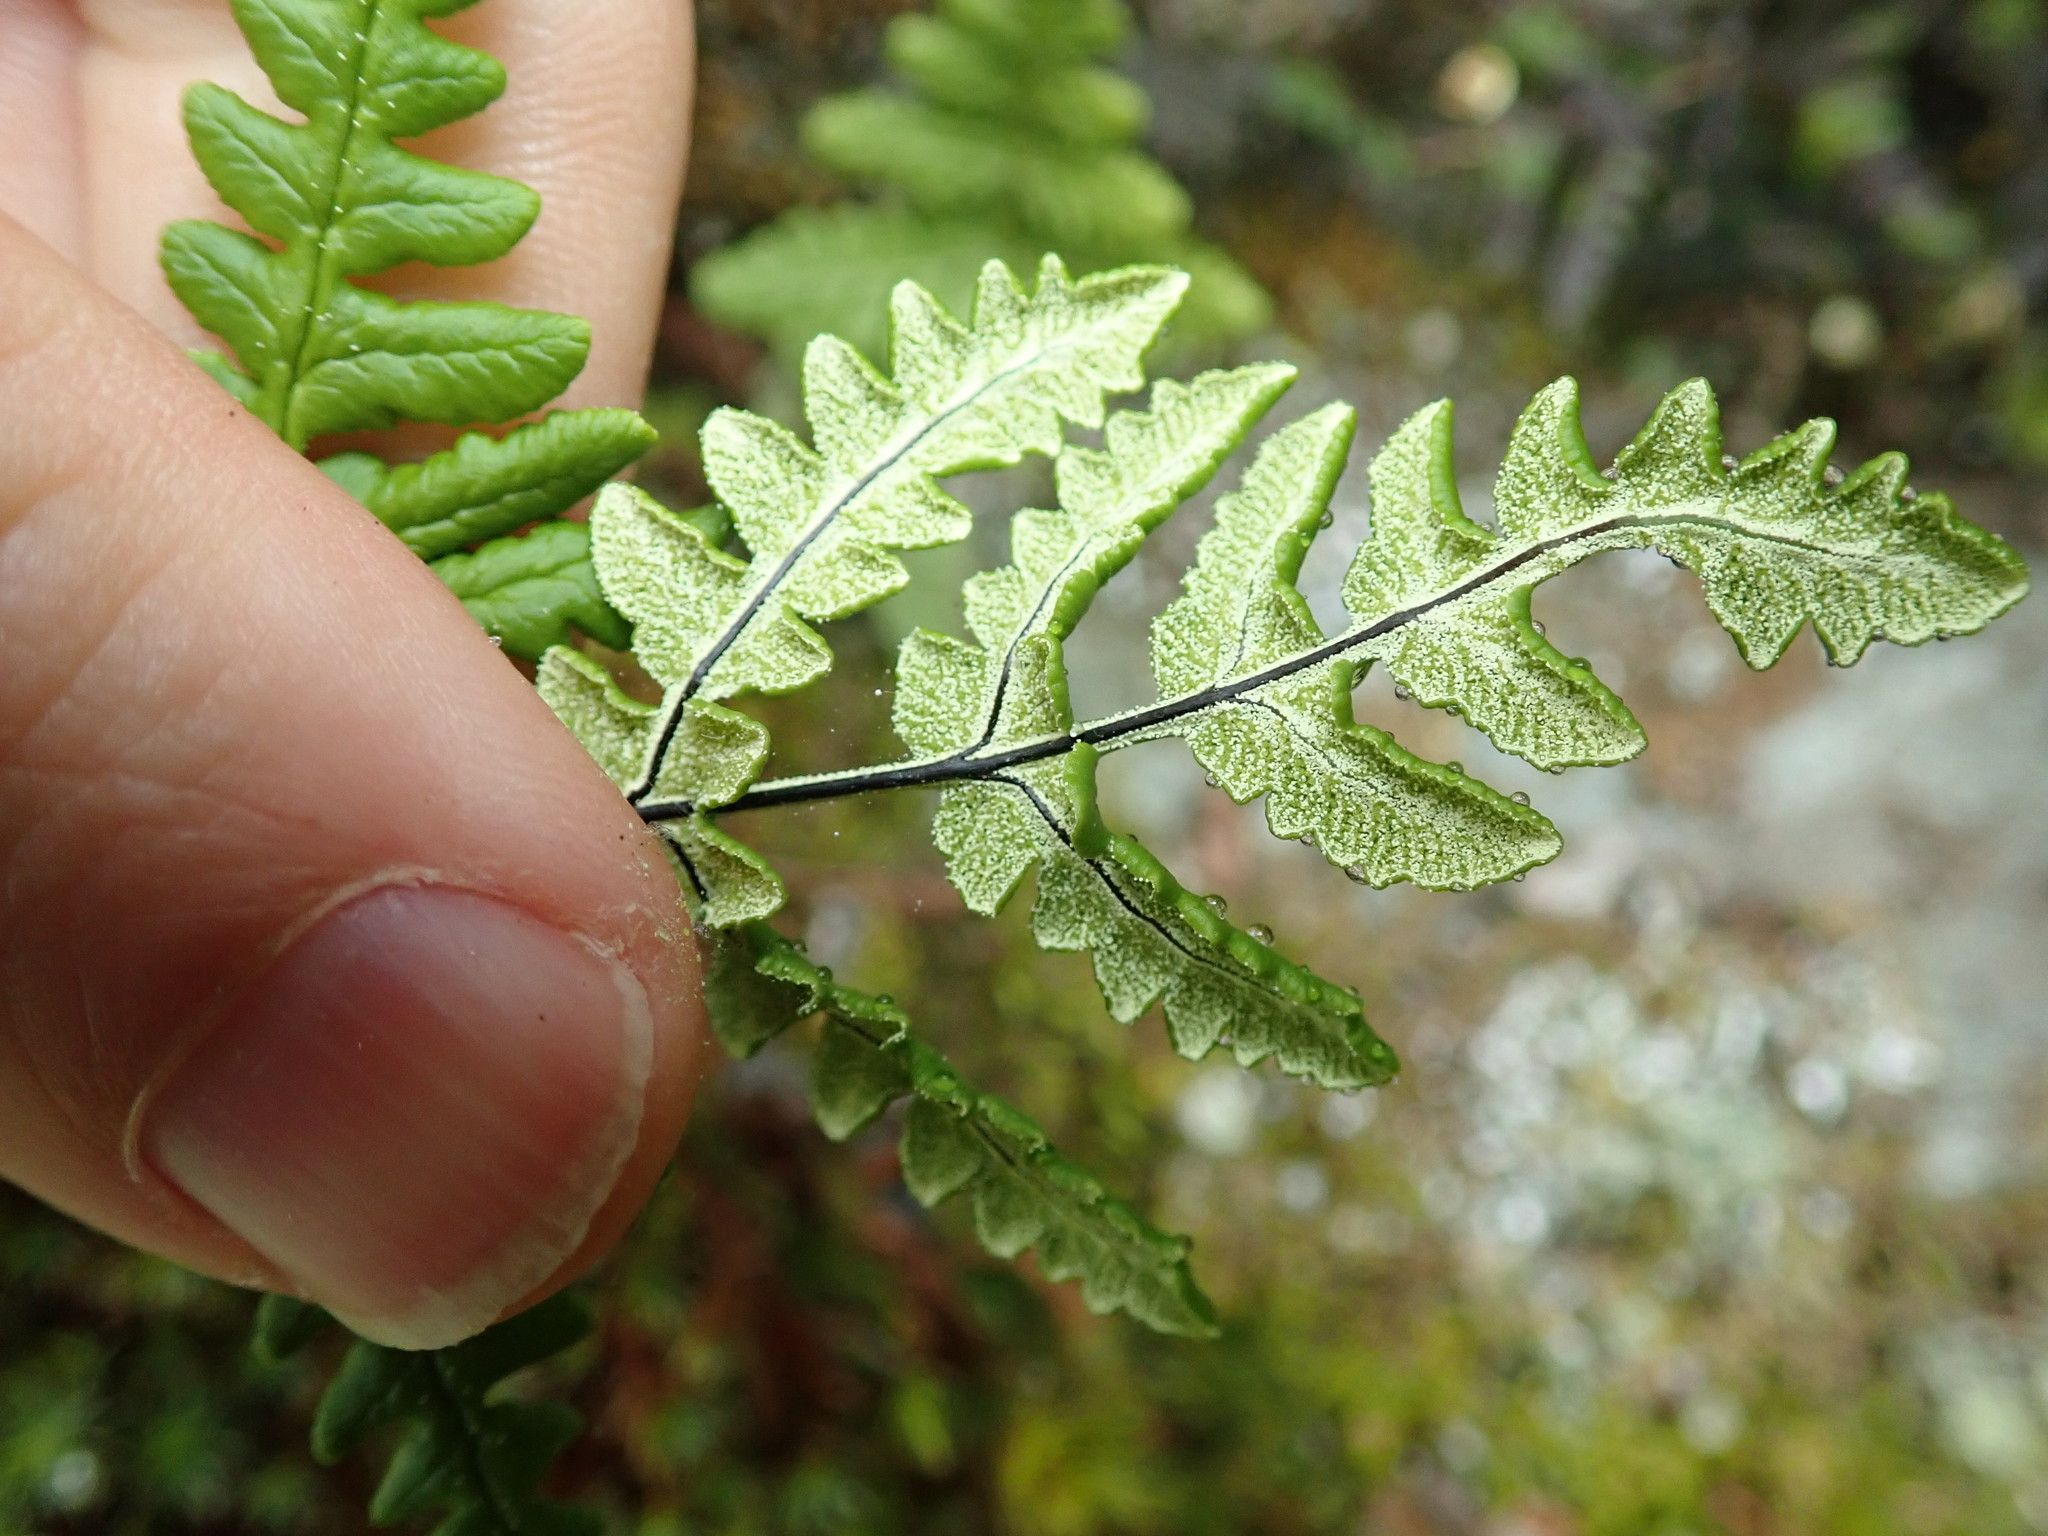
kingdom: Plantae
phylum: Tracheophyta
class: Polypodiopsida
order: Polypodiales
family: Pteridaceae
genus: Pentagramma
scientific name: Pentagramma triangularis
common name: Gold fern
